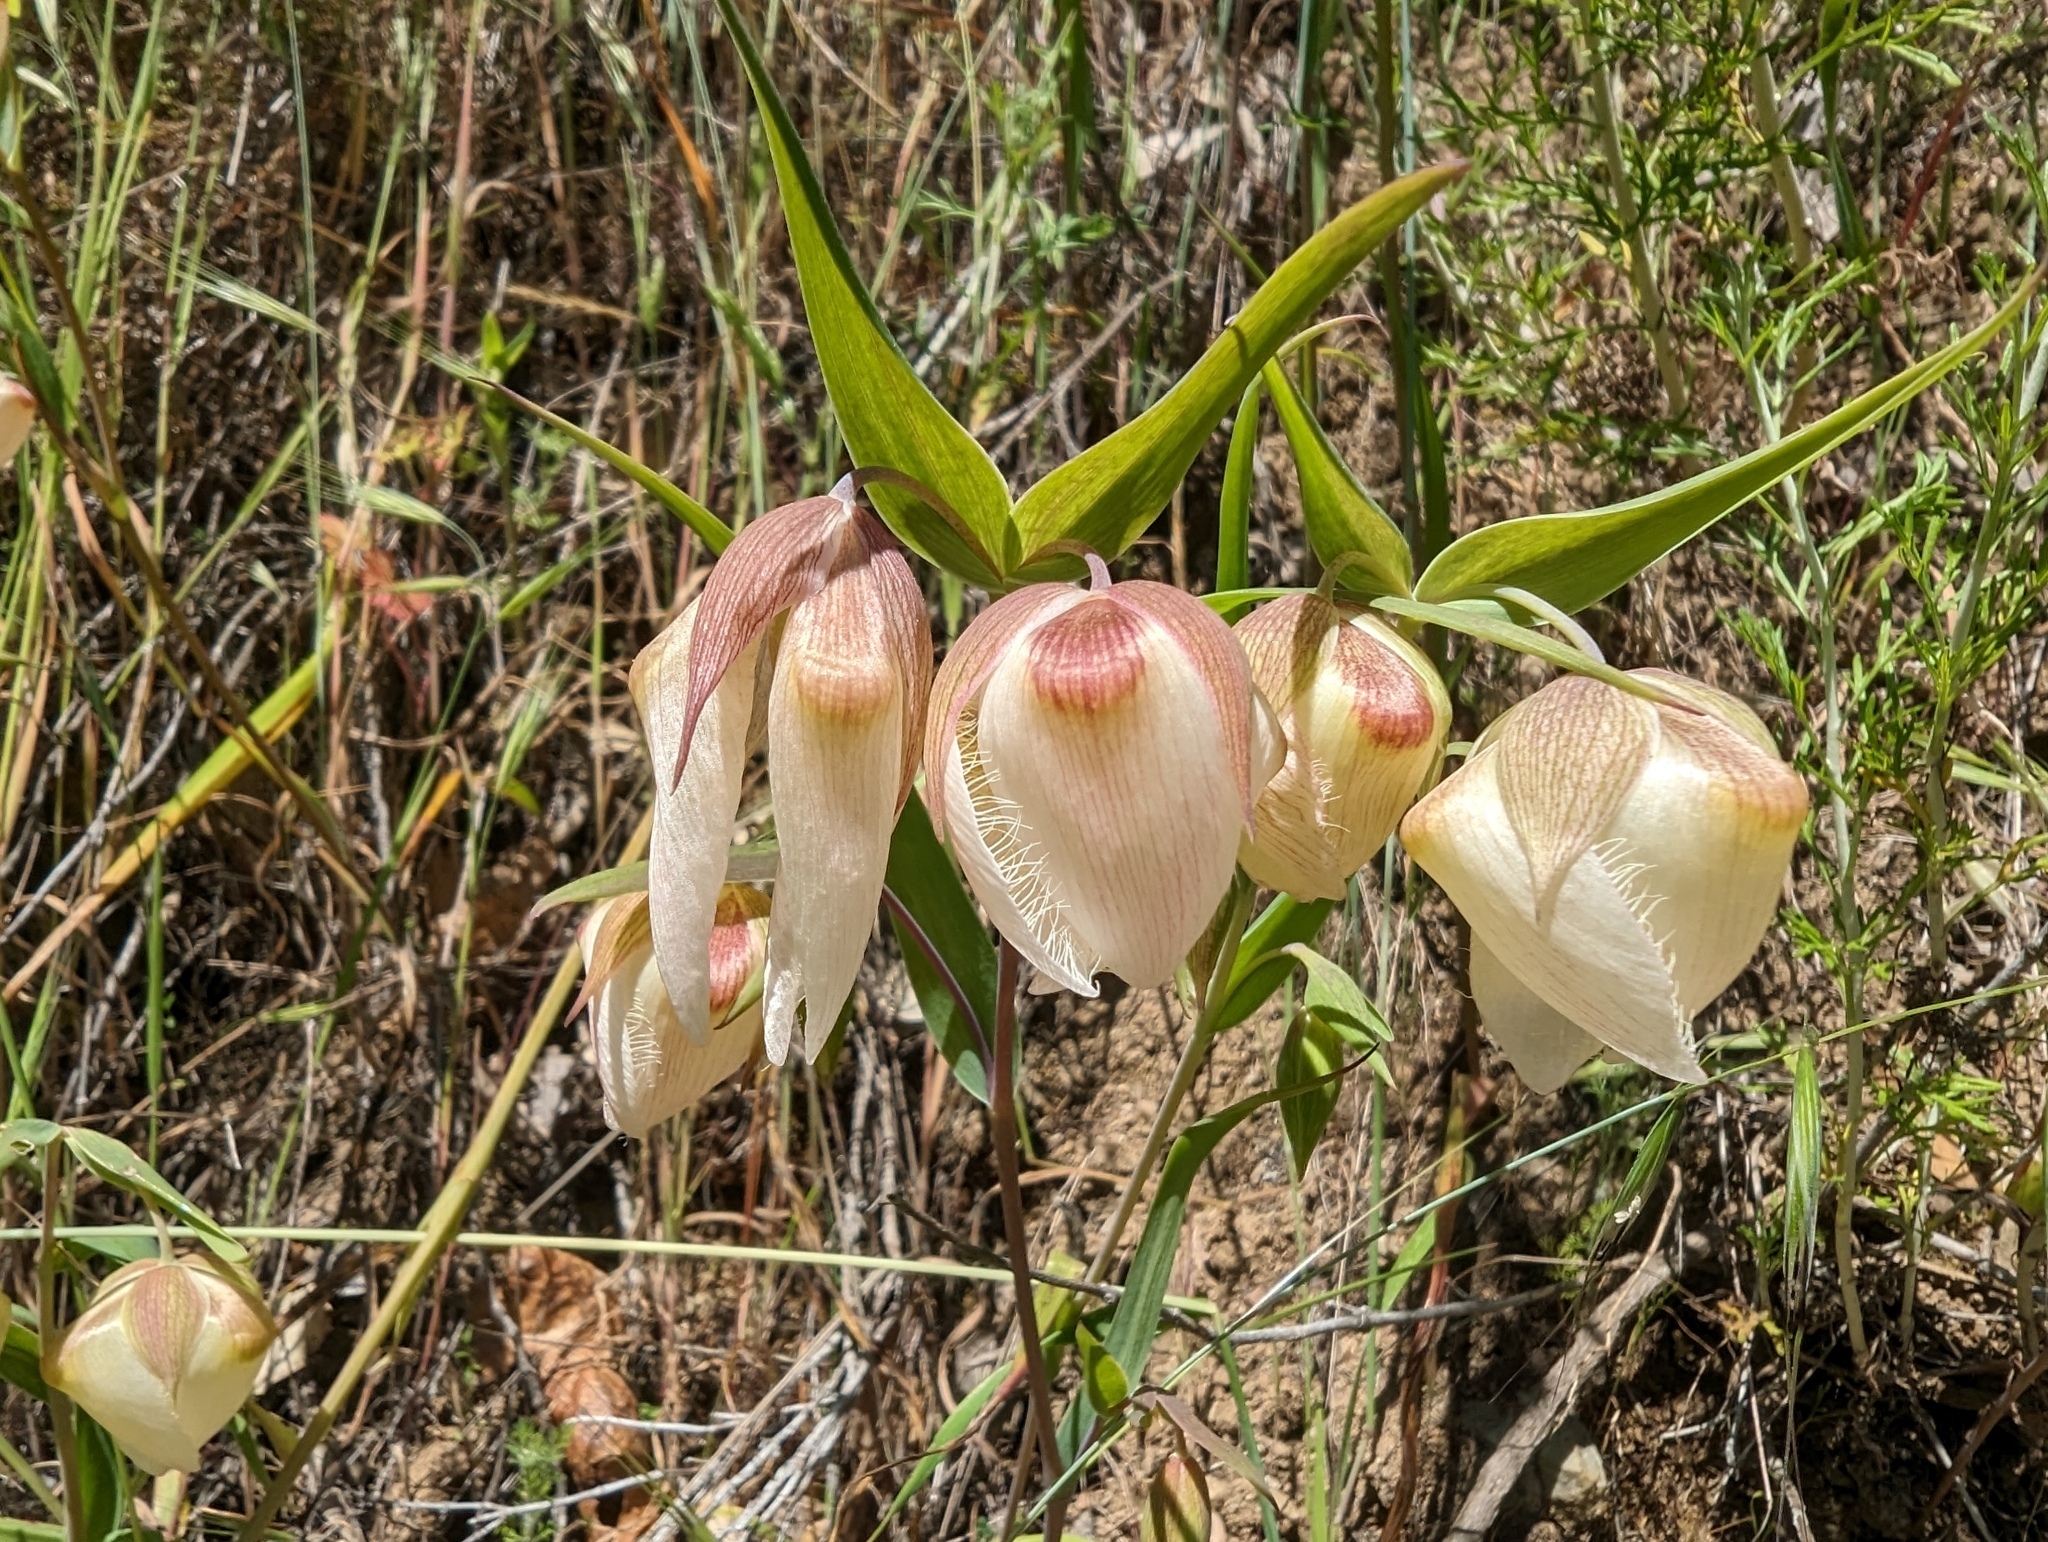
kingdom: Plantae
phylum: Tracheophyta
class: Liliopsida
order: Liliales
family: Liliaceae
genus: Calochortus
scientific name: Calochortus albus
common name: Fairy-lantern
